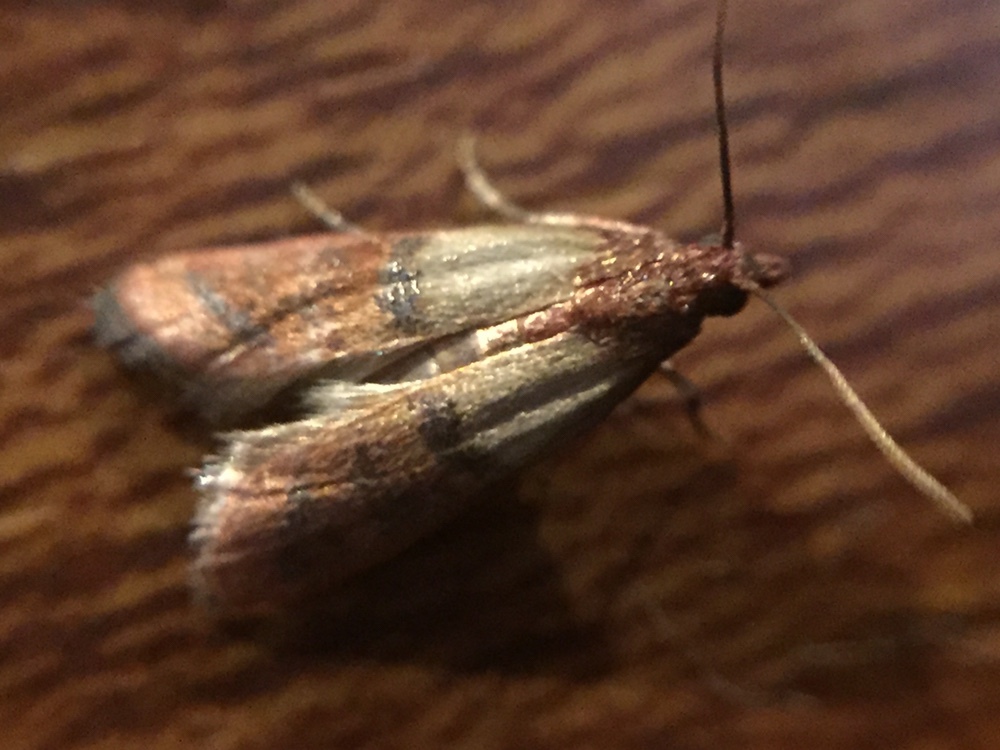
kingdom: Animalia
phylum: Arthropoda
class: Insecta
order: Lepidoptera
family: Pyralidae
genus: Plodia
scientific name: Plodia interpunctella
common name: Indian meal moth
